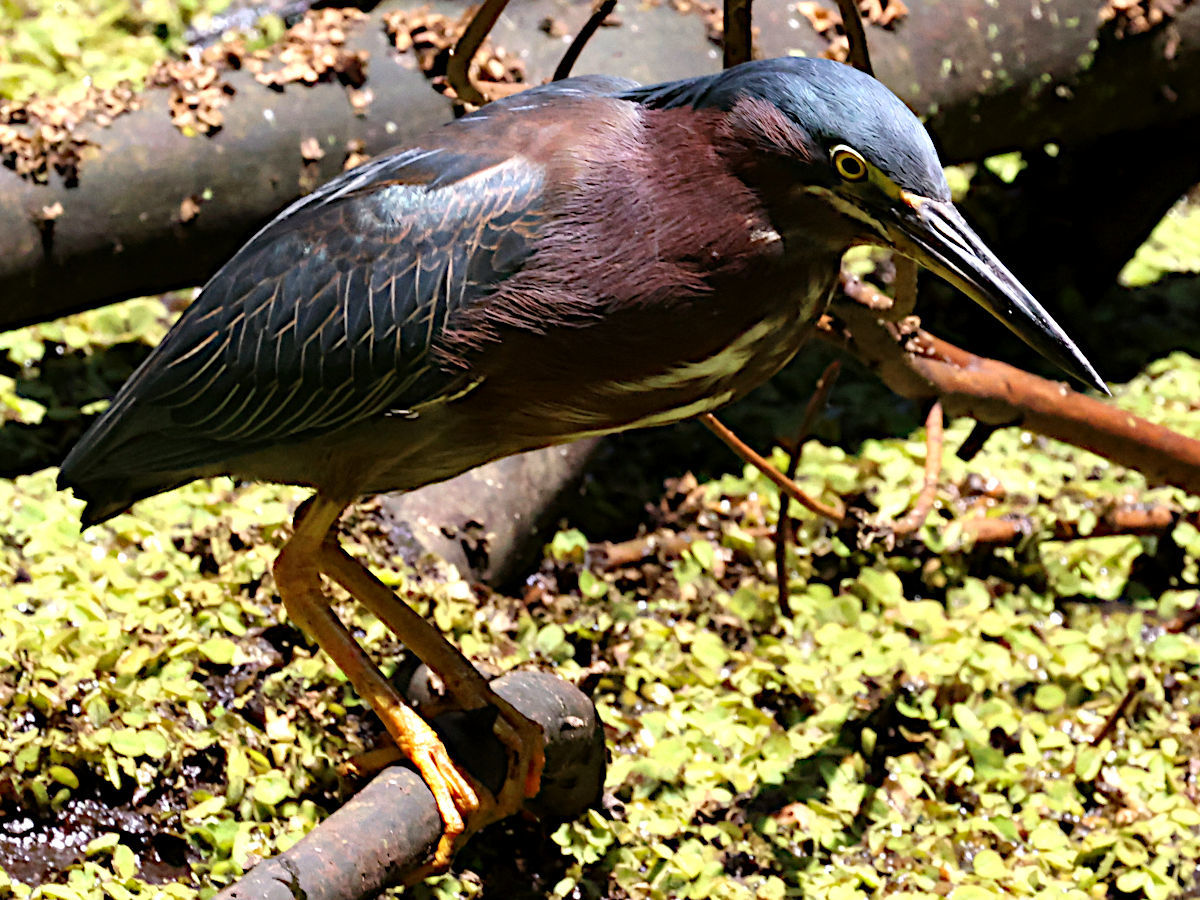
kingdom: Animalia
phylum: Chordata
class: Aves
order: Pelecaniformes
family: Ardeidae
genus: Butorides
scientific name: Butorides virescens
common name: Green heron
